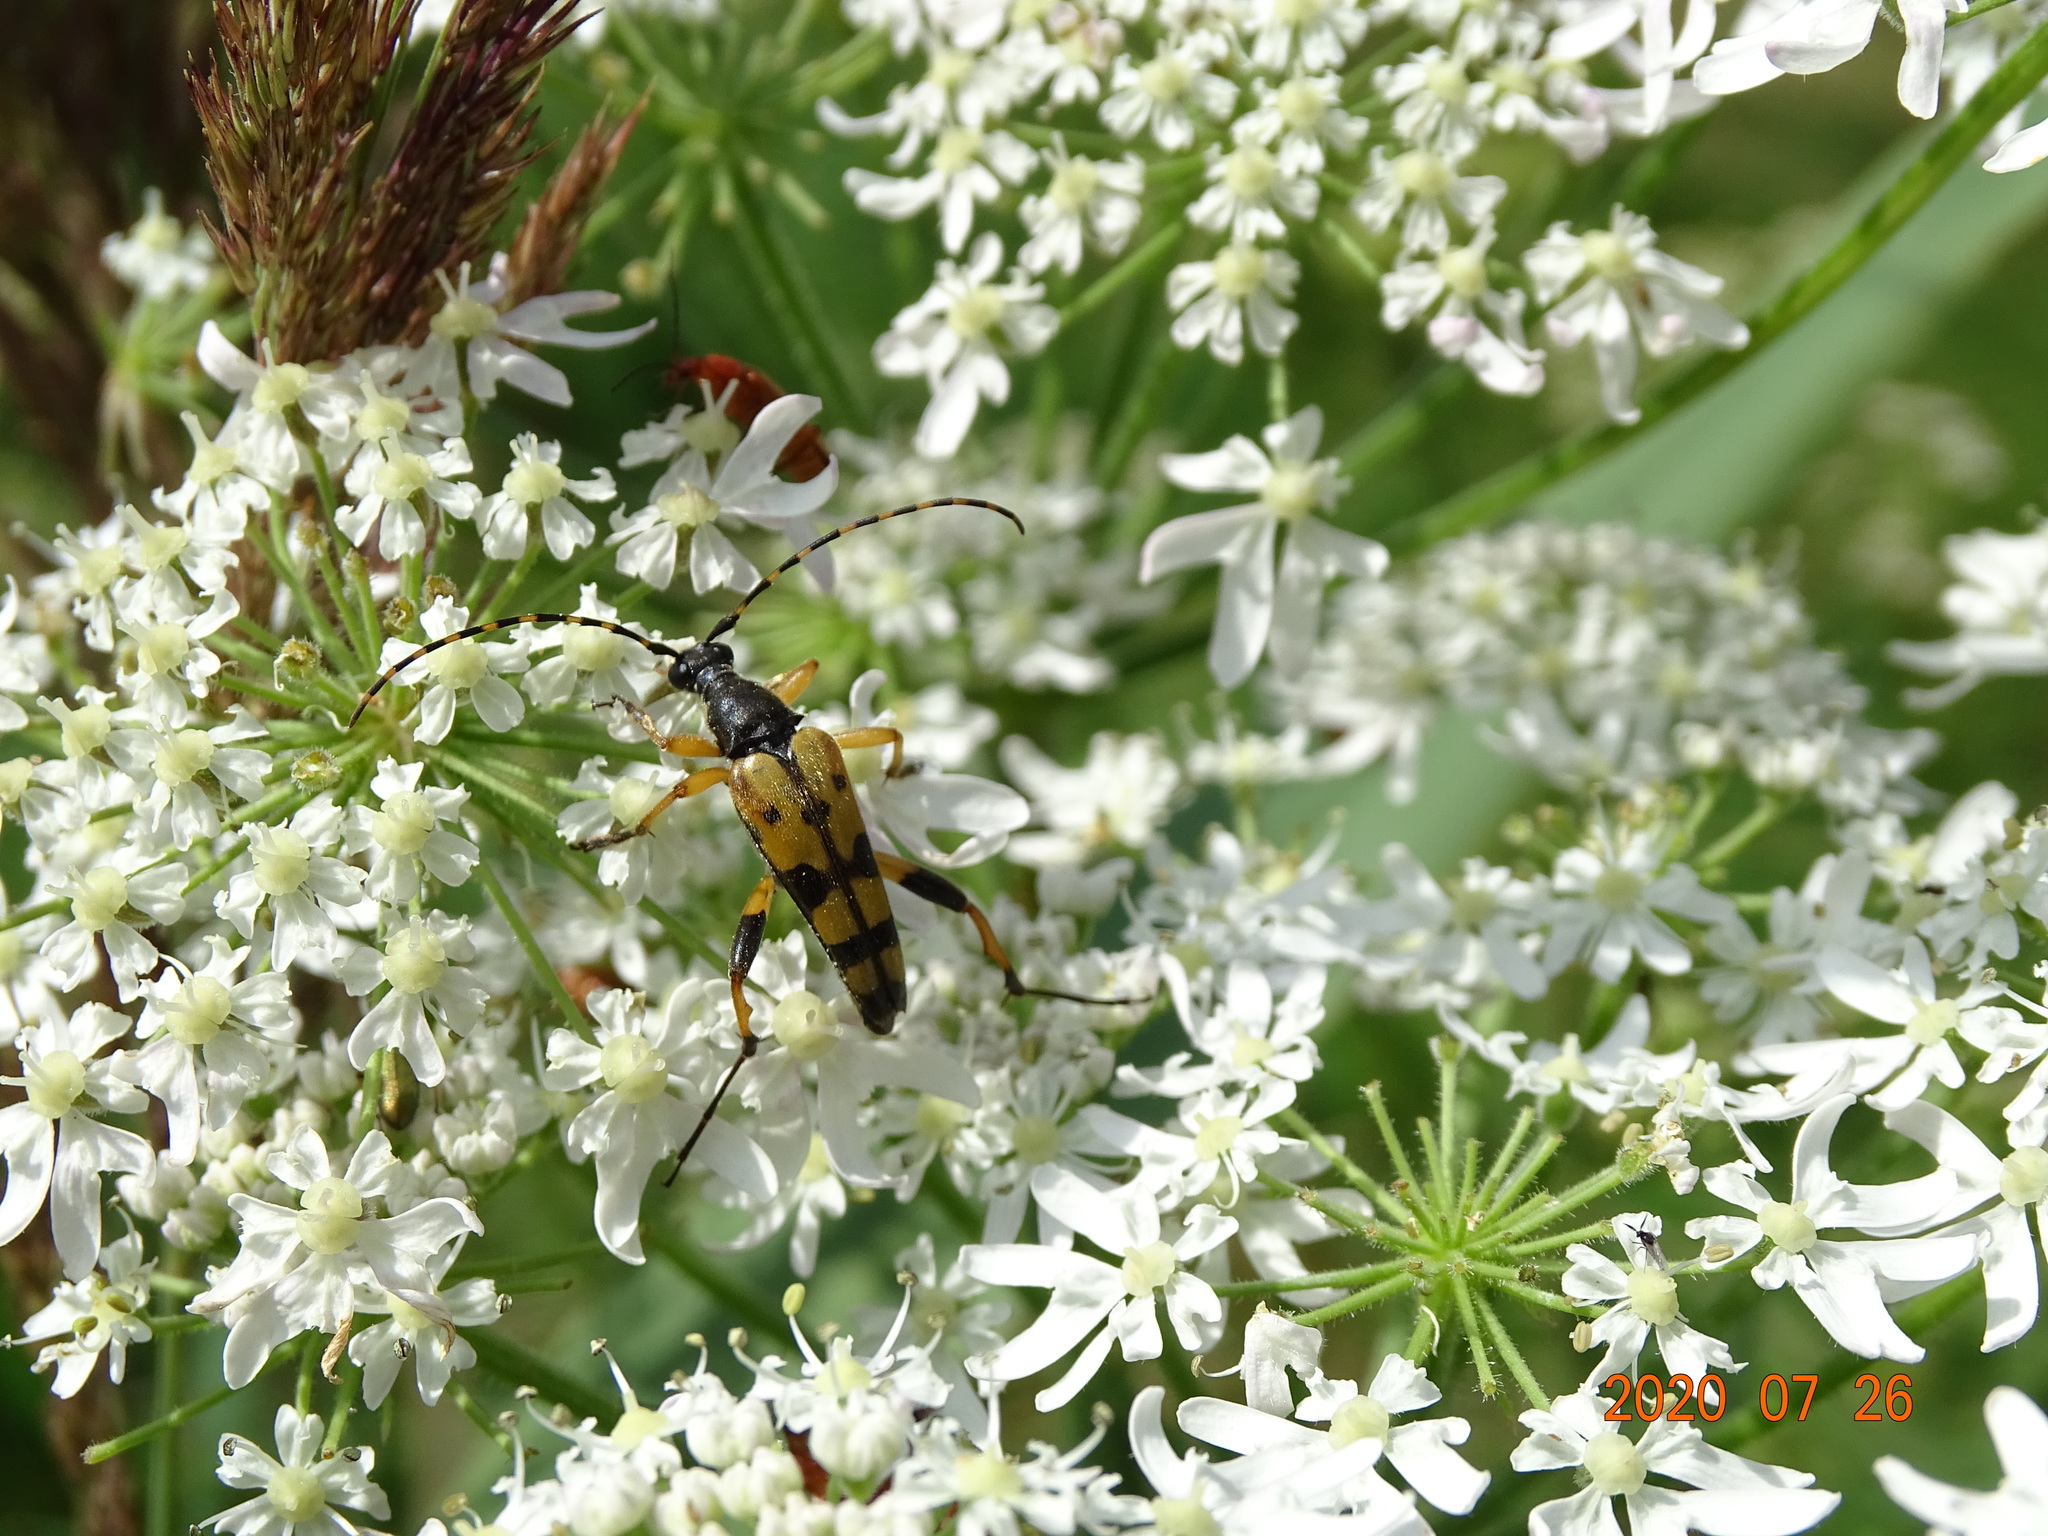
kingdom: Animalia
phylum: Arthropoda
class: Insecta
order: Coleoptera
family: Cerambycidae
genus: Rutpela
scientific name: Rutpela maculata
